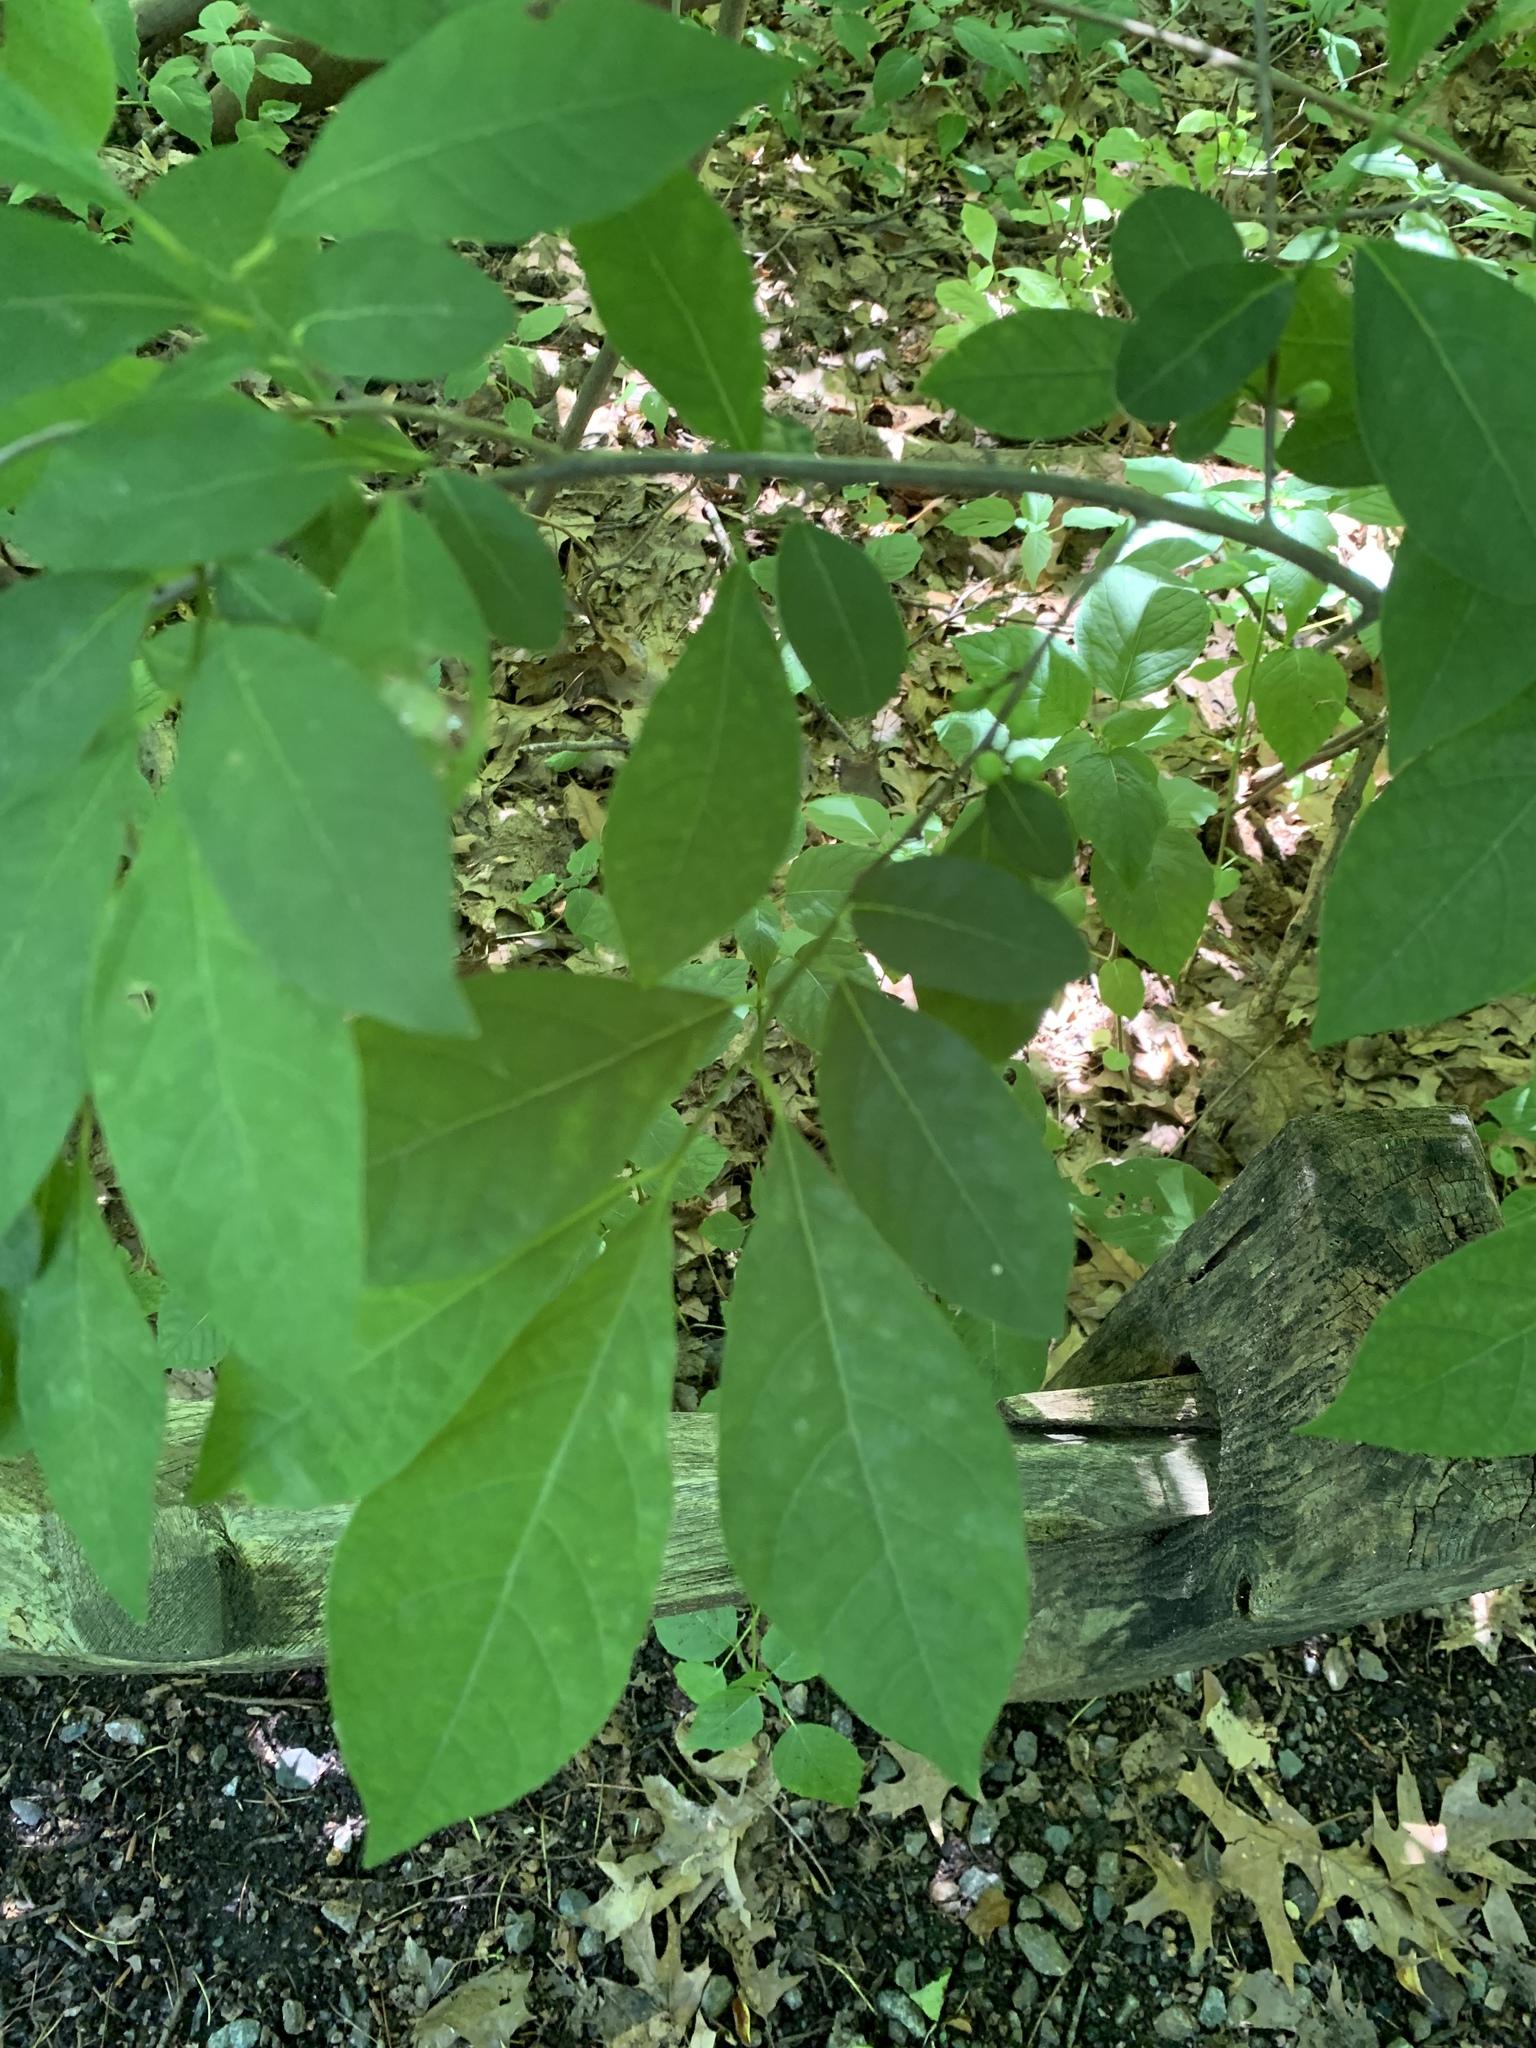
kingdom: Plantae
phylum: Tracheophyta
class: Magnoliopsida
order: Laurales
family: Lauraceae
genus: Lindera
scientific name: Lindera benzoin
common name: Spicebush
